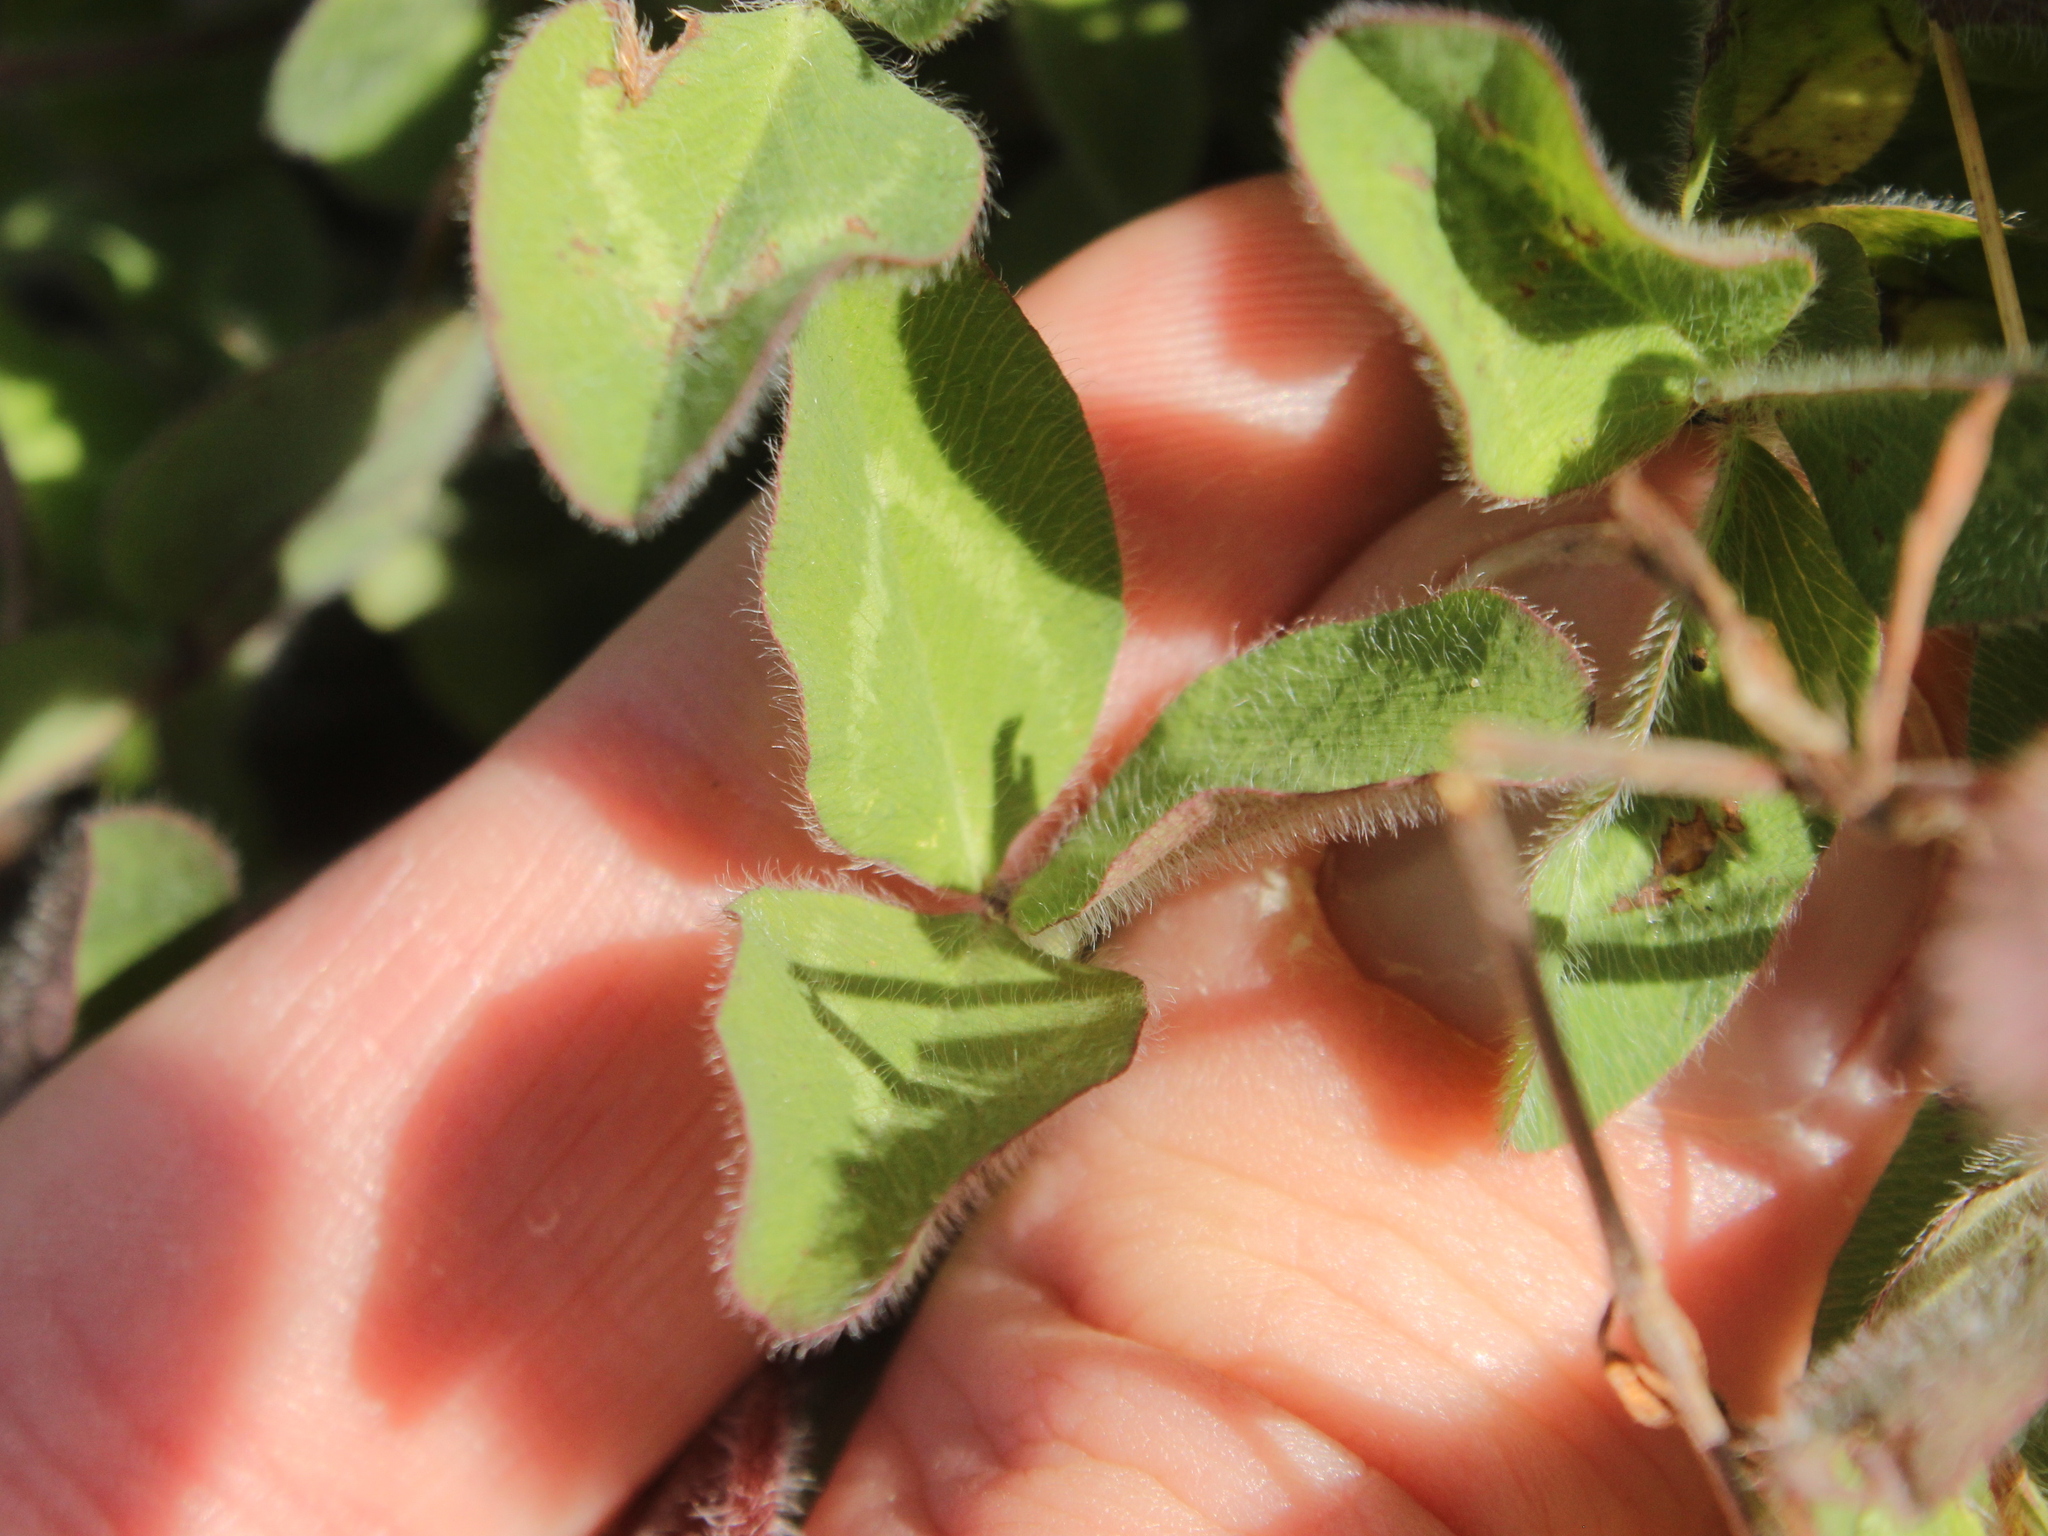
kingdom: Plantae
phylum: Tracheophyta
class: Magnoliopsida
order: Fabales
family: Fabaceae
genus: Trifolium
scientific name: Trifolium striatum
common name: Knotted clover
